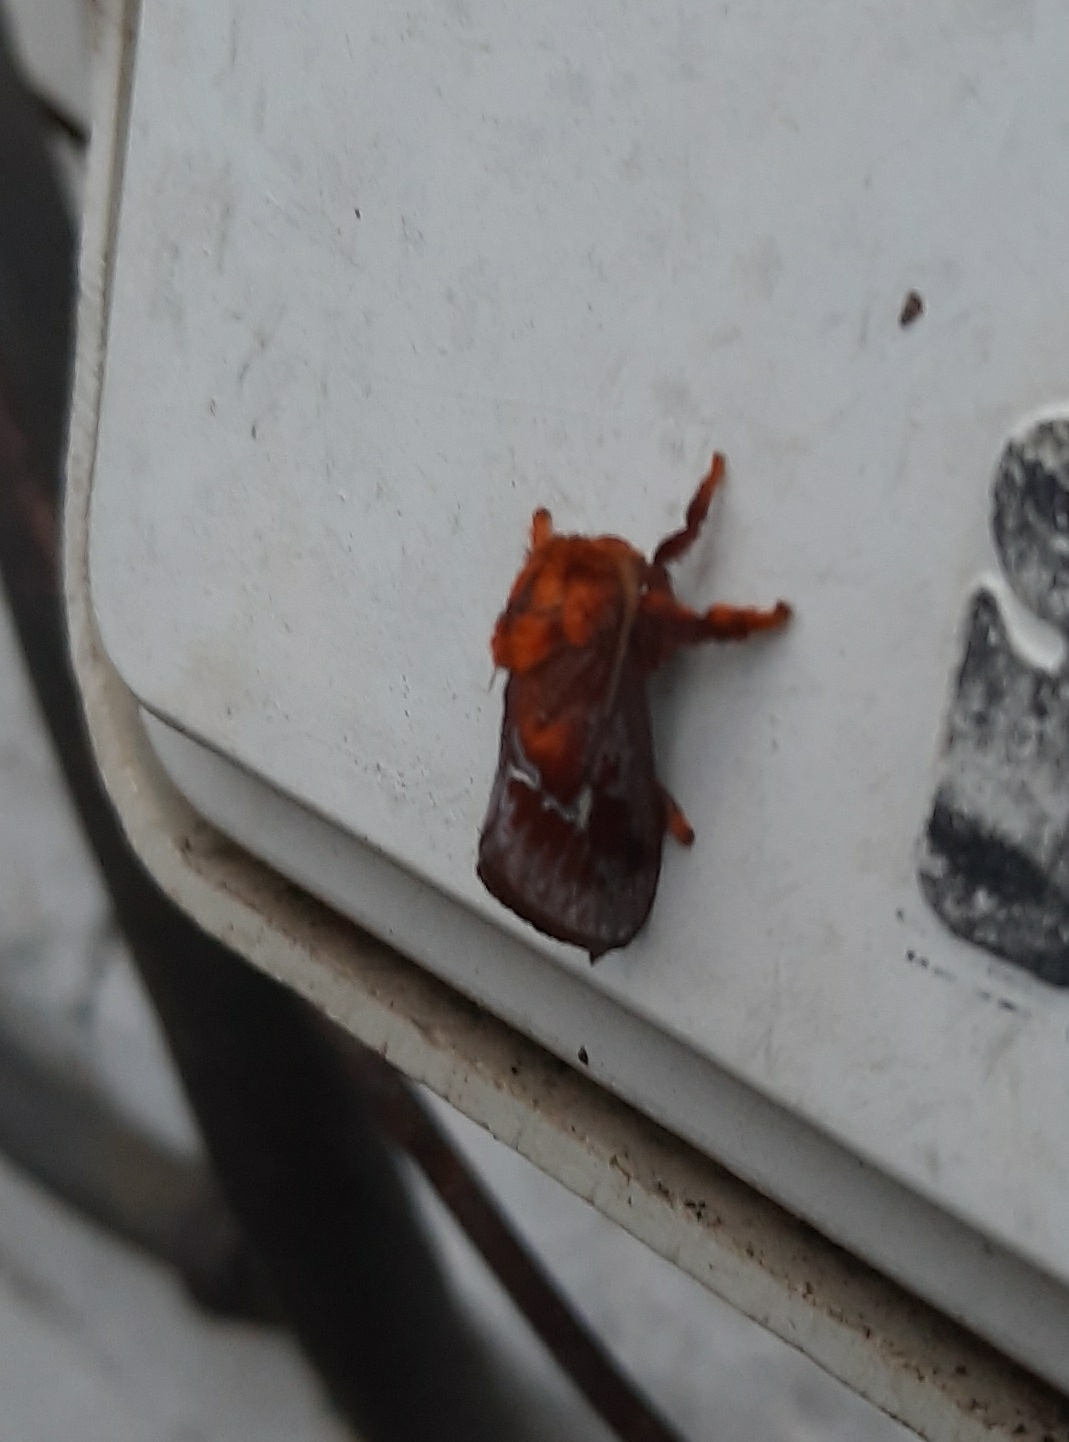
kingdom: Animalia
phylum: Arthropoda
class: Insecta
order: Lepidoptera
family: Limacodidae
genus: Miresa
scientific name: Miresa pyronota
